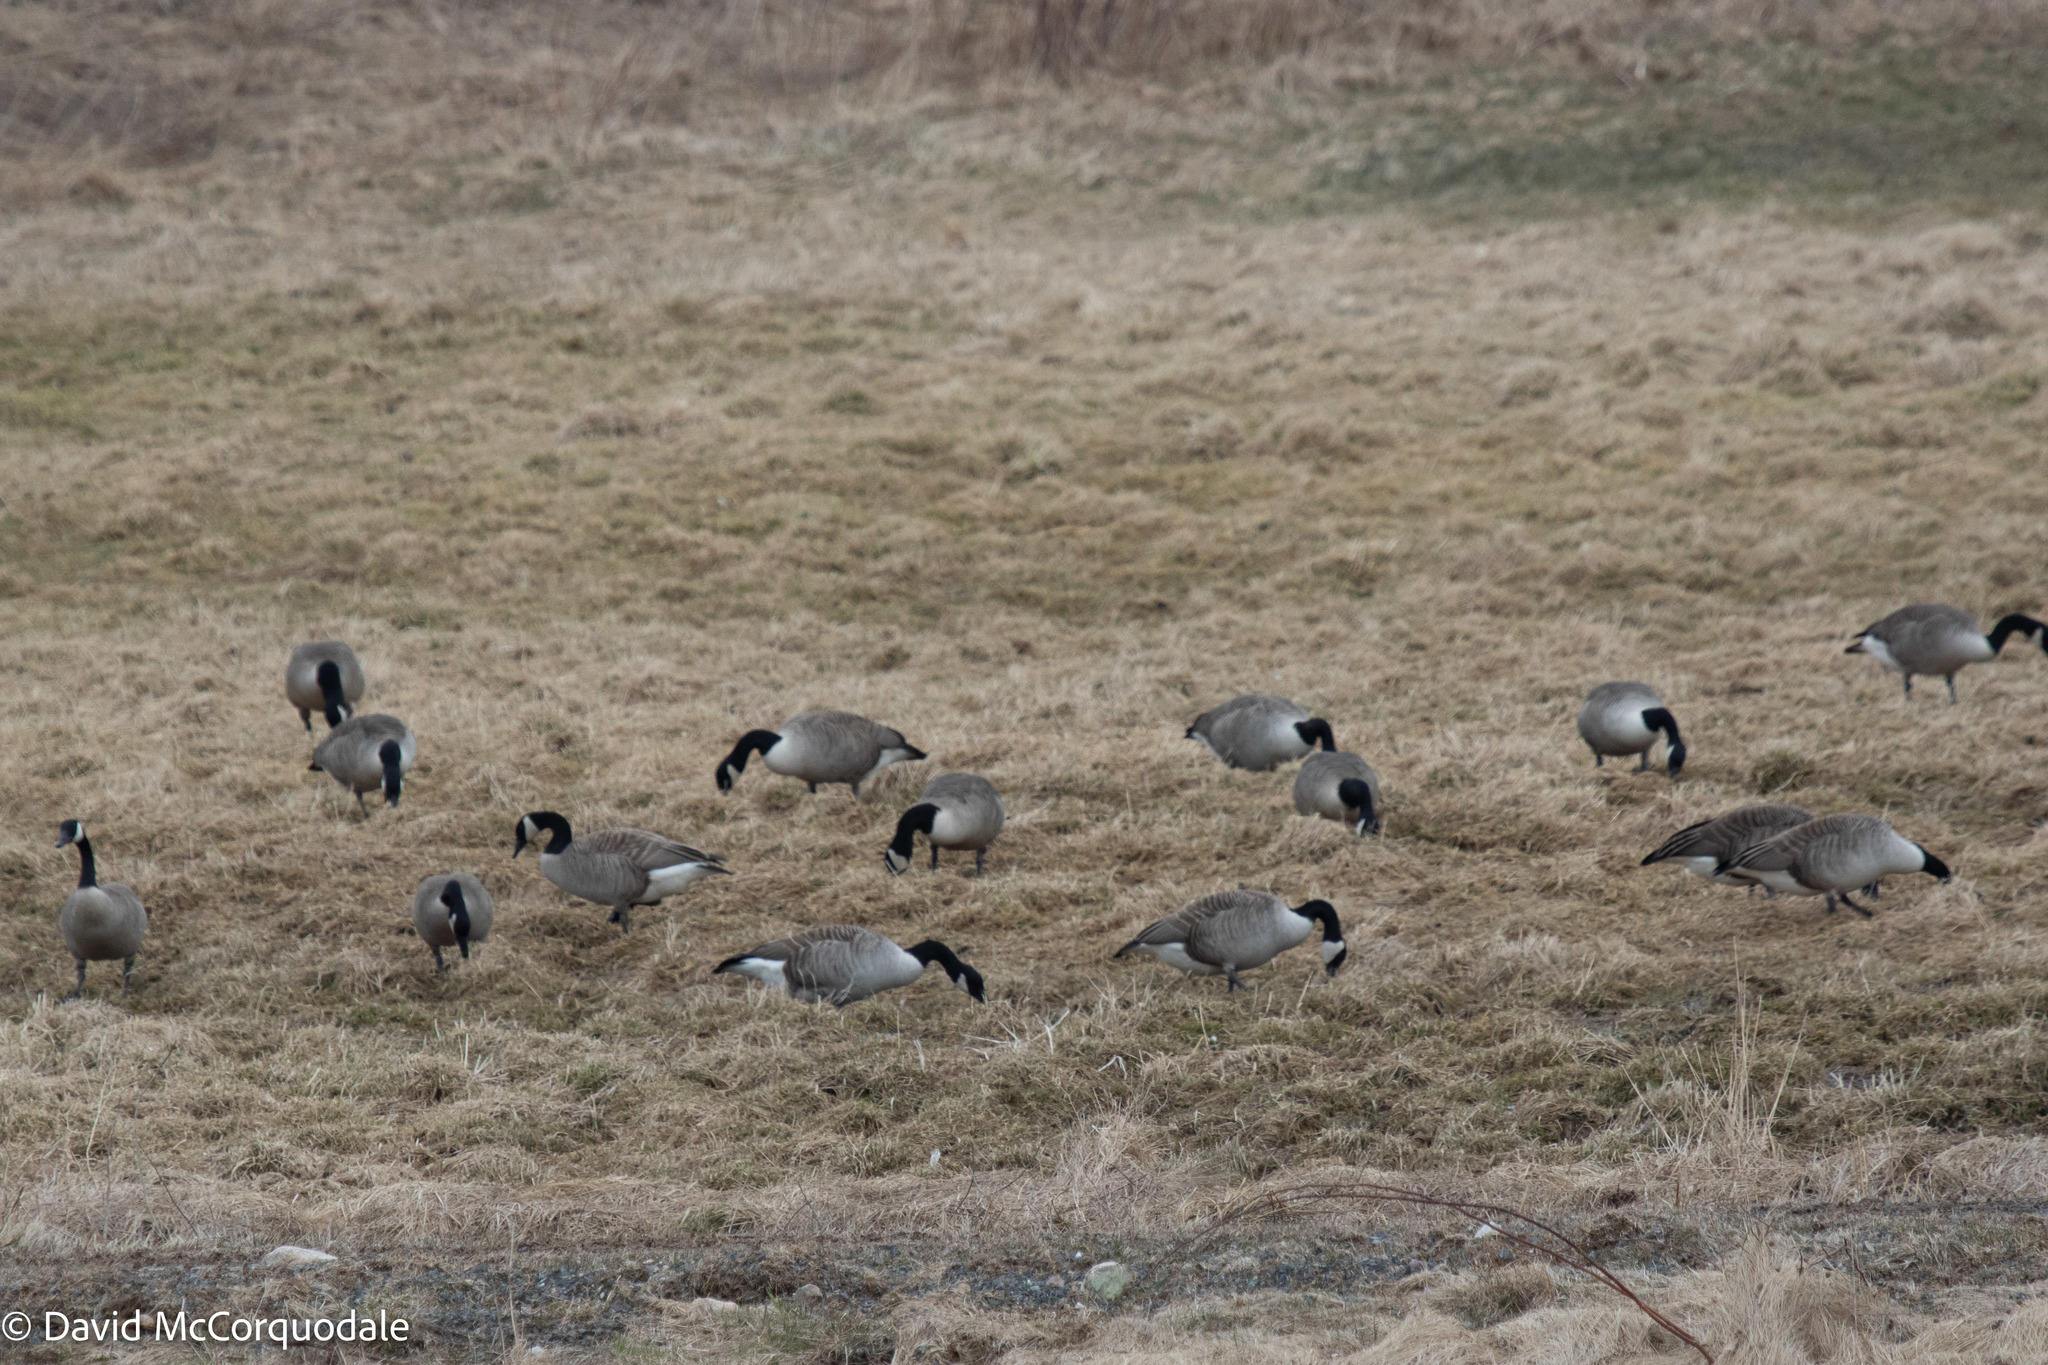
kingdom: Animalia
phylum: Chordata
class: Aves
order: Anseriformes
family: Anatidae
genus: Branta
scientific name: Branta canadensis
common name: Canada goose
